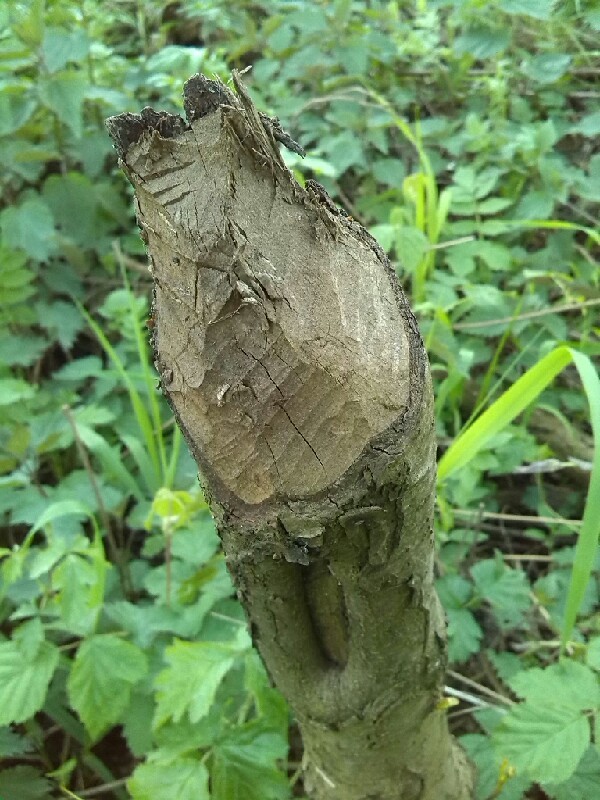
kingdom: Animalia
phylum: Chordata
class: Mammalia
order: Rodentia
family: Castoridae
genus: Castor
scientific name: Castor fiber
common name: Eurasian beaver
